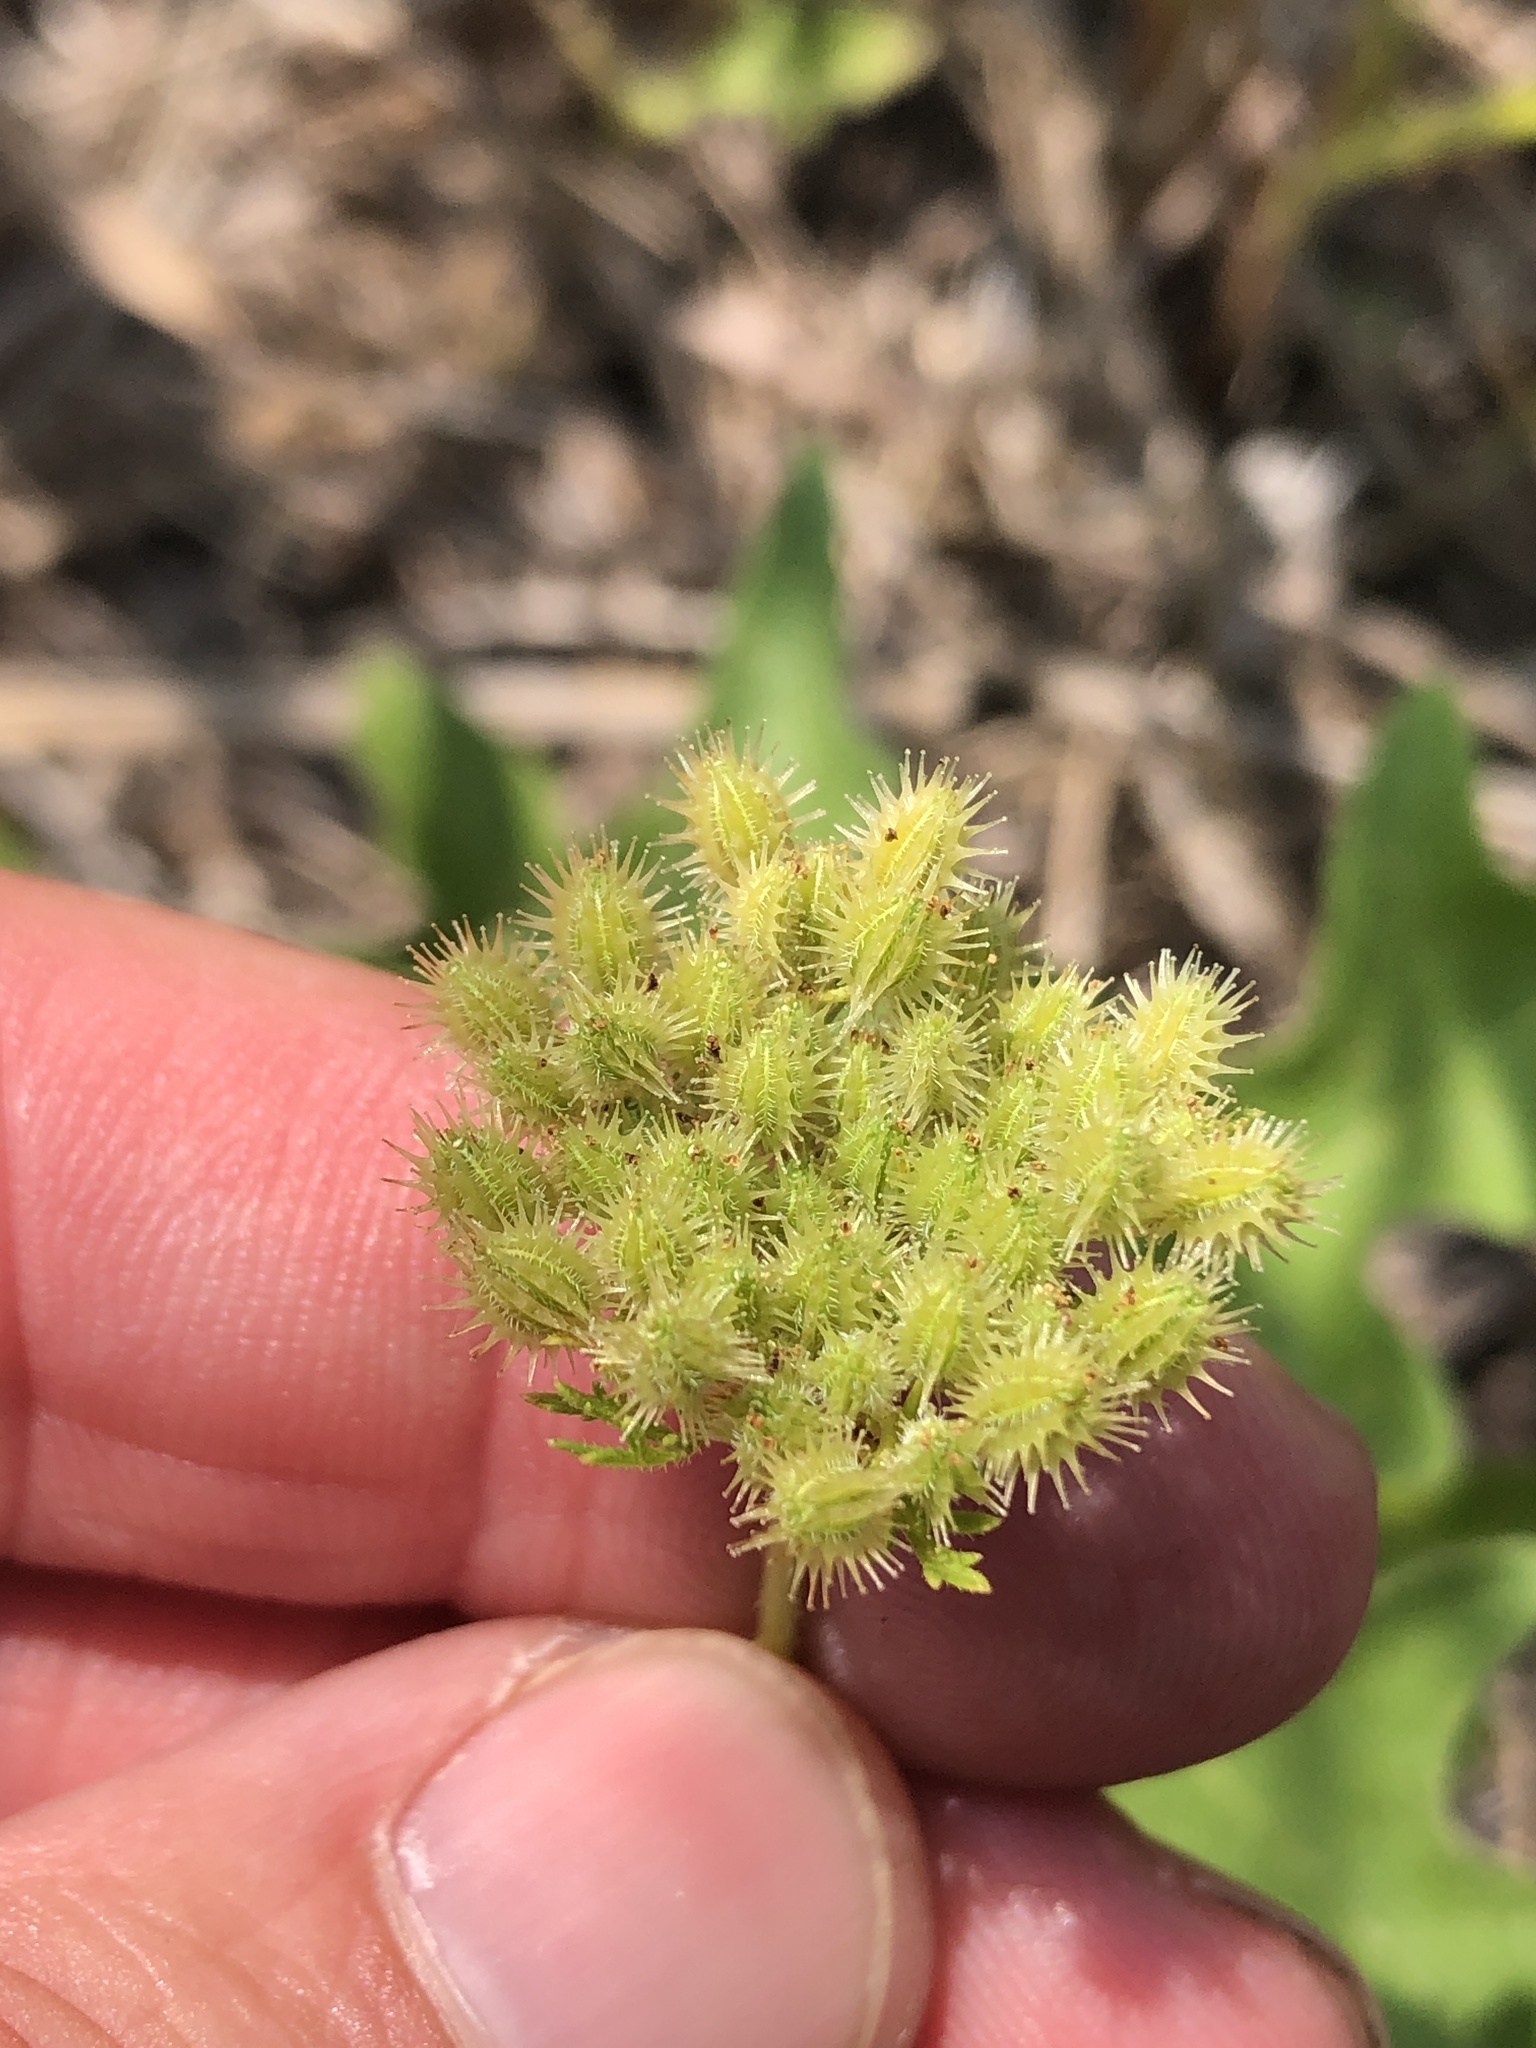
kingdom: Plantae
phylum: Tracheophyta
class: Magnoliopsida
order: Apiales
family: Apiaceae
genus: Daucus
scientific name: Daucus pusillus
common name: Southwest wild carrot
